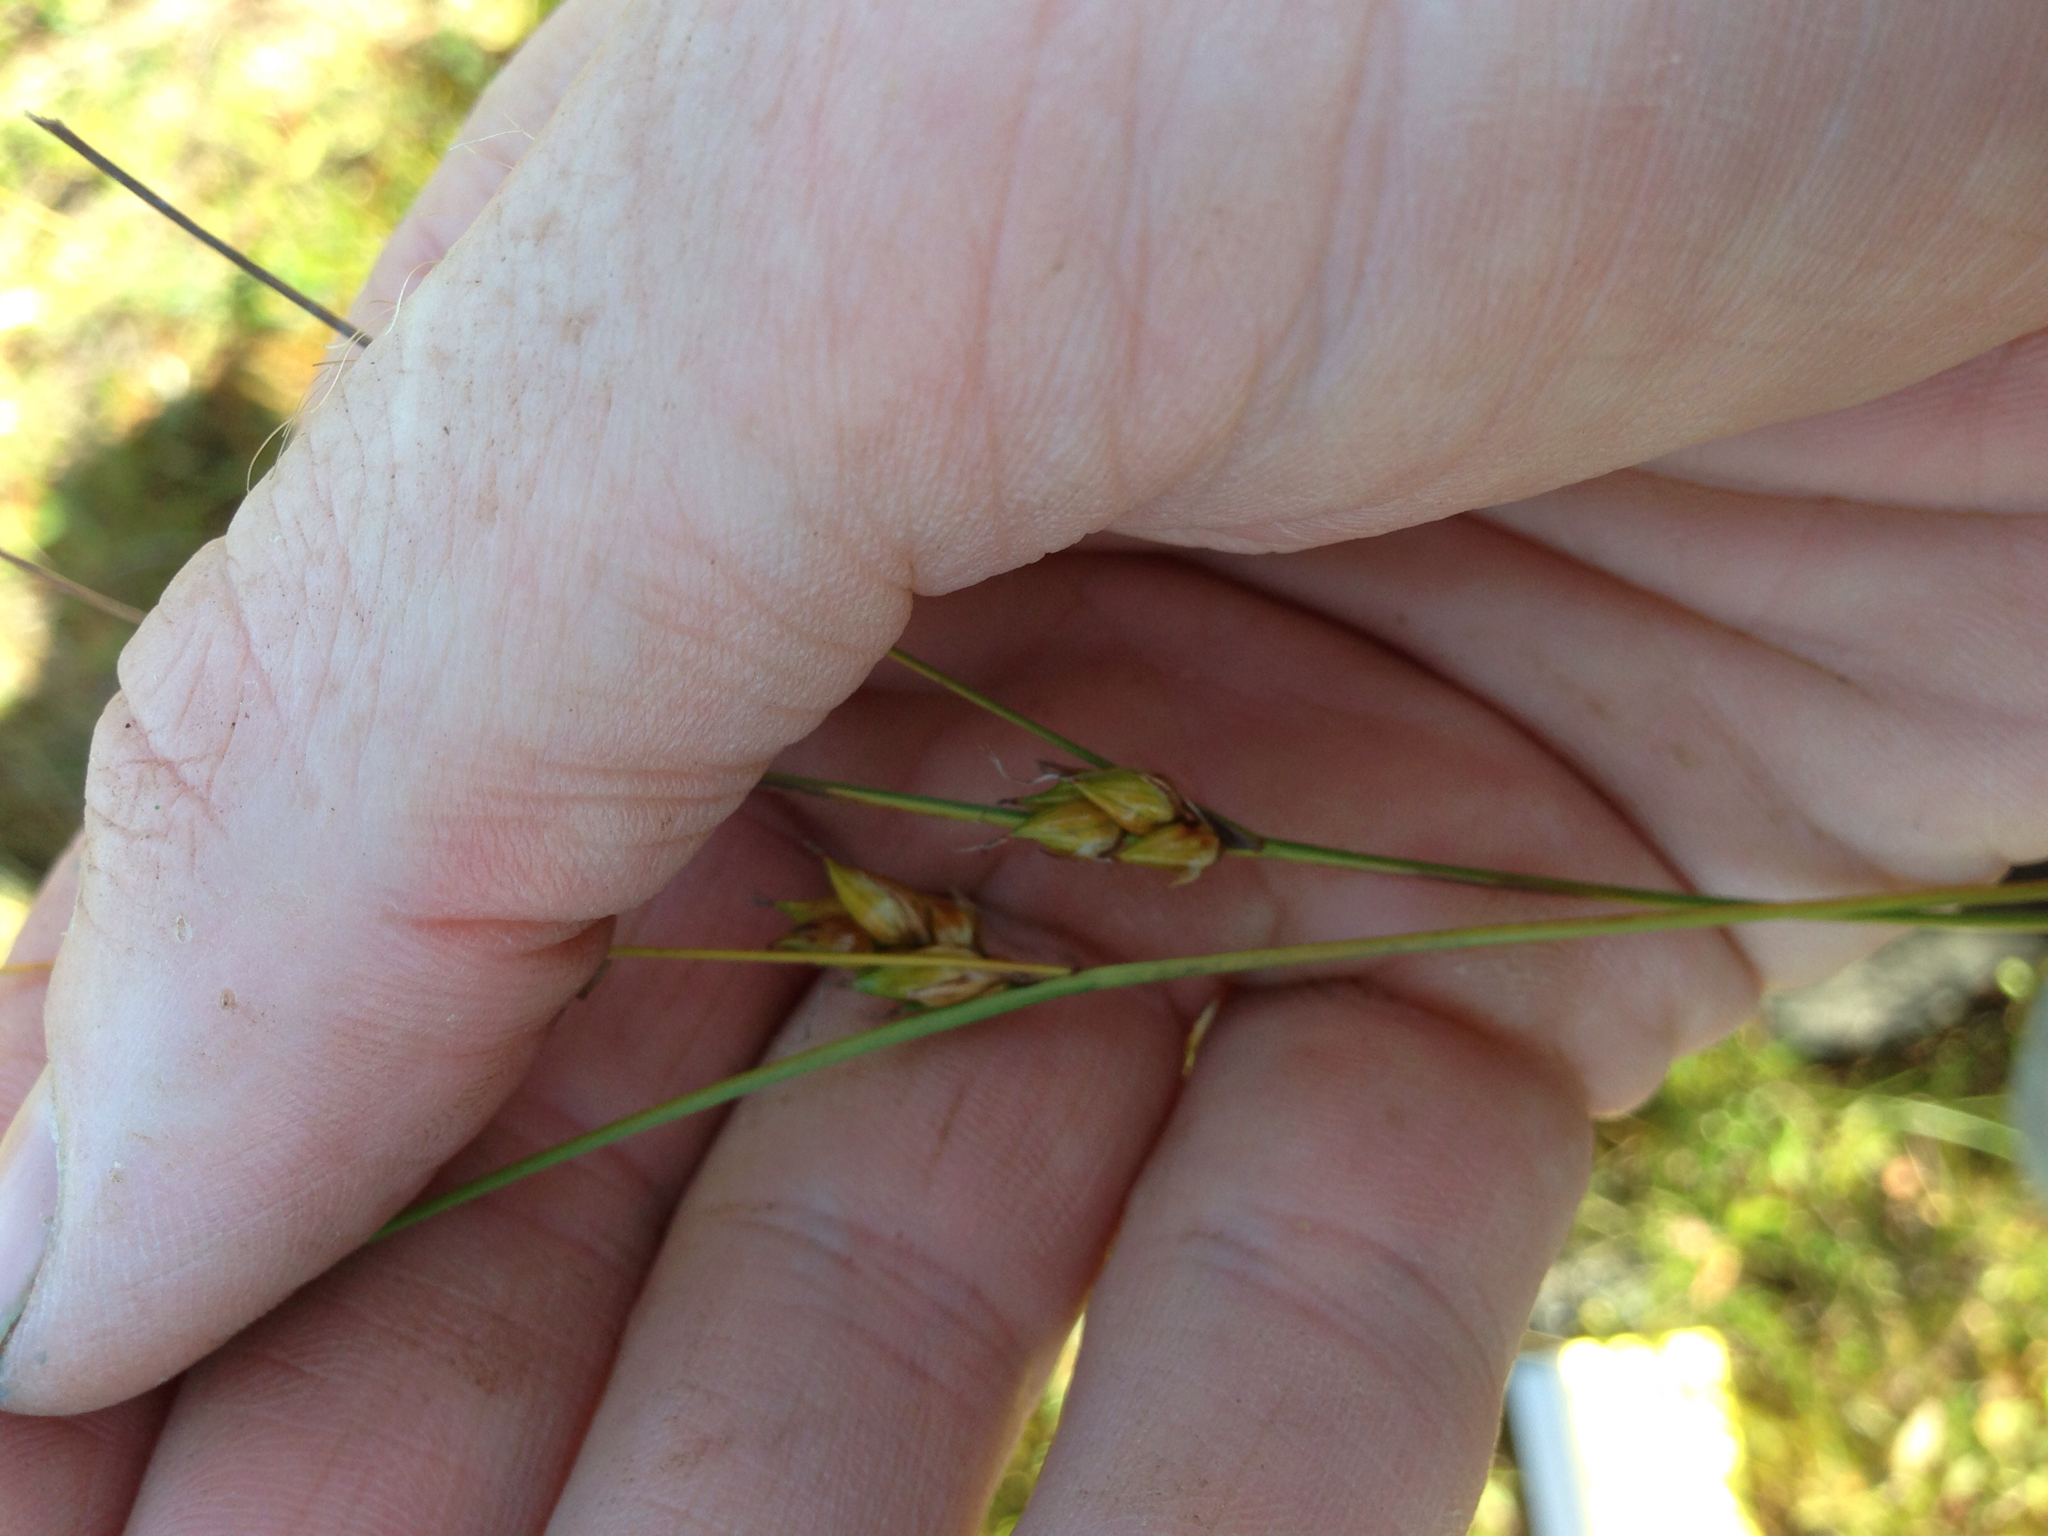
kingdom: Plantae
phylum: Tracheophyta
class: Liliopsida
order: Poales
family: Cyperaceae
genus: Carex
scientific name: Carex oligosperma
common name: Few-seed sedge
